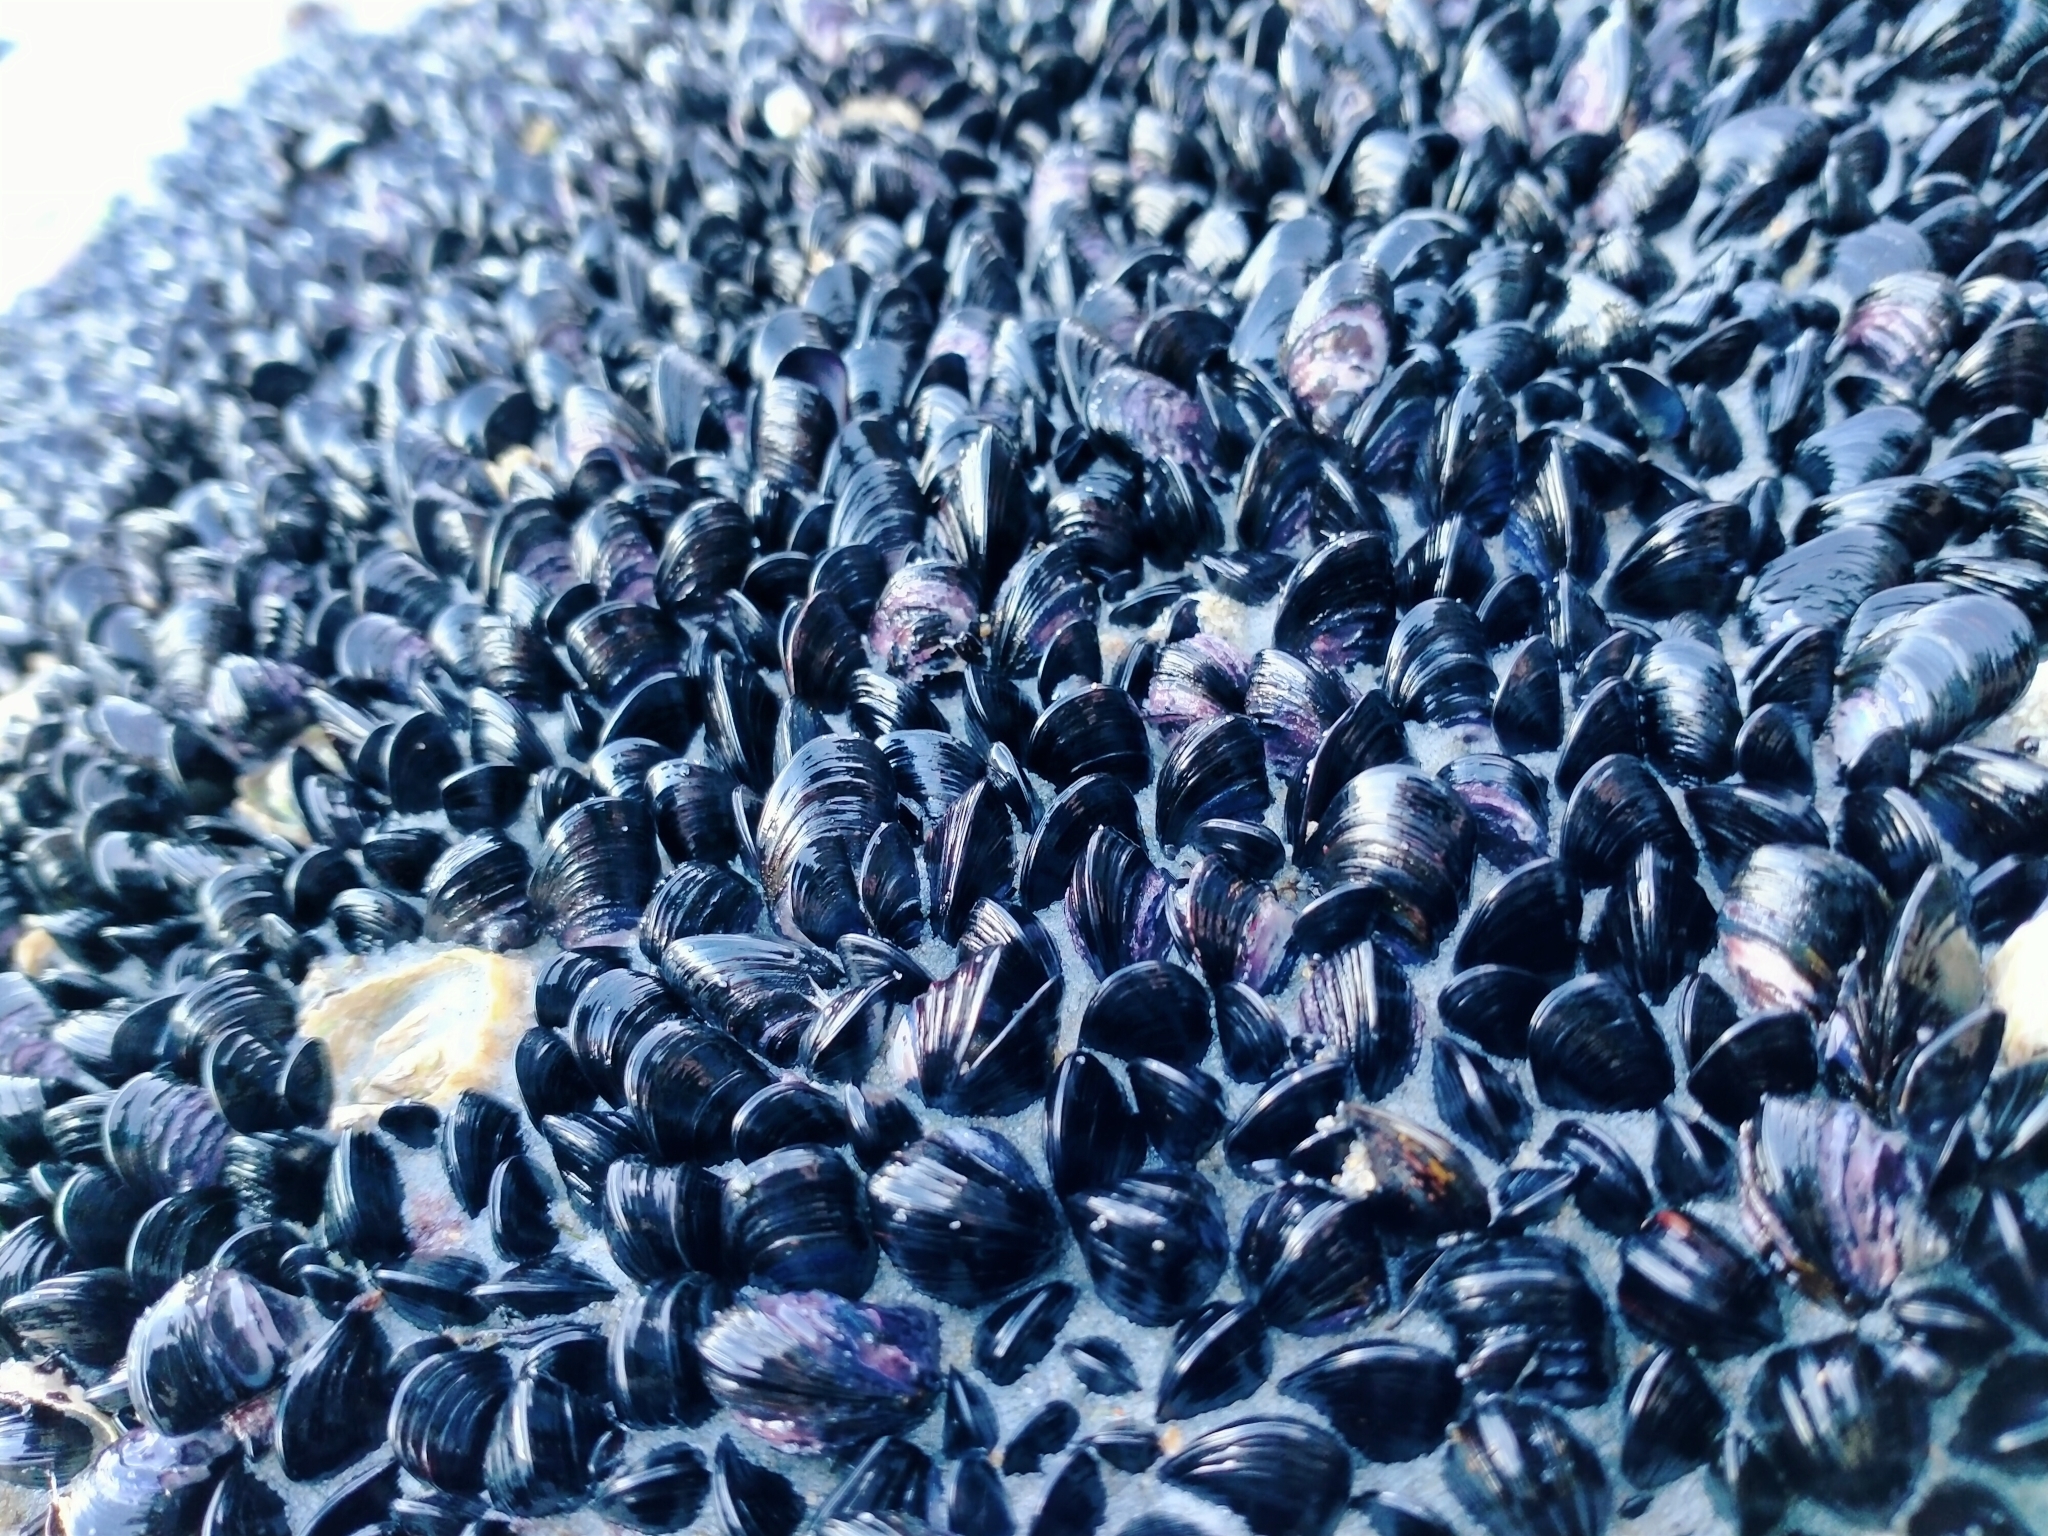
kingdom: Animalia
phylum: Mollusca
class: Bivalvia
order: Mytilida
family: Mytilidae
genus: Xenostrobus
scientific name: Xenostrobus neozelanicus
